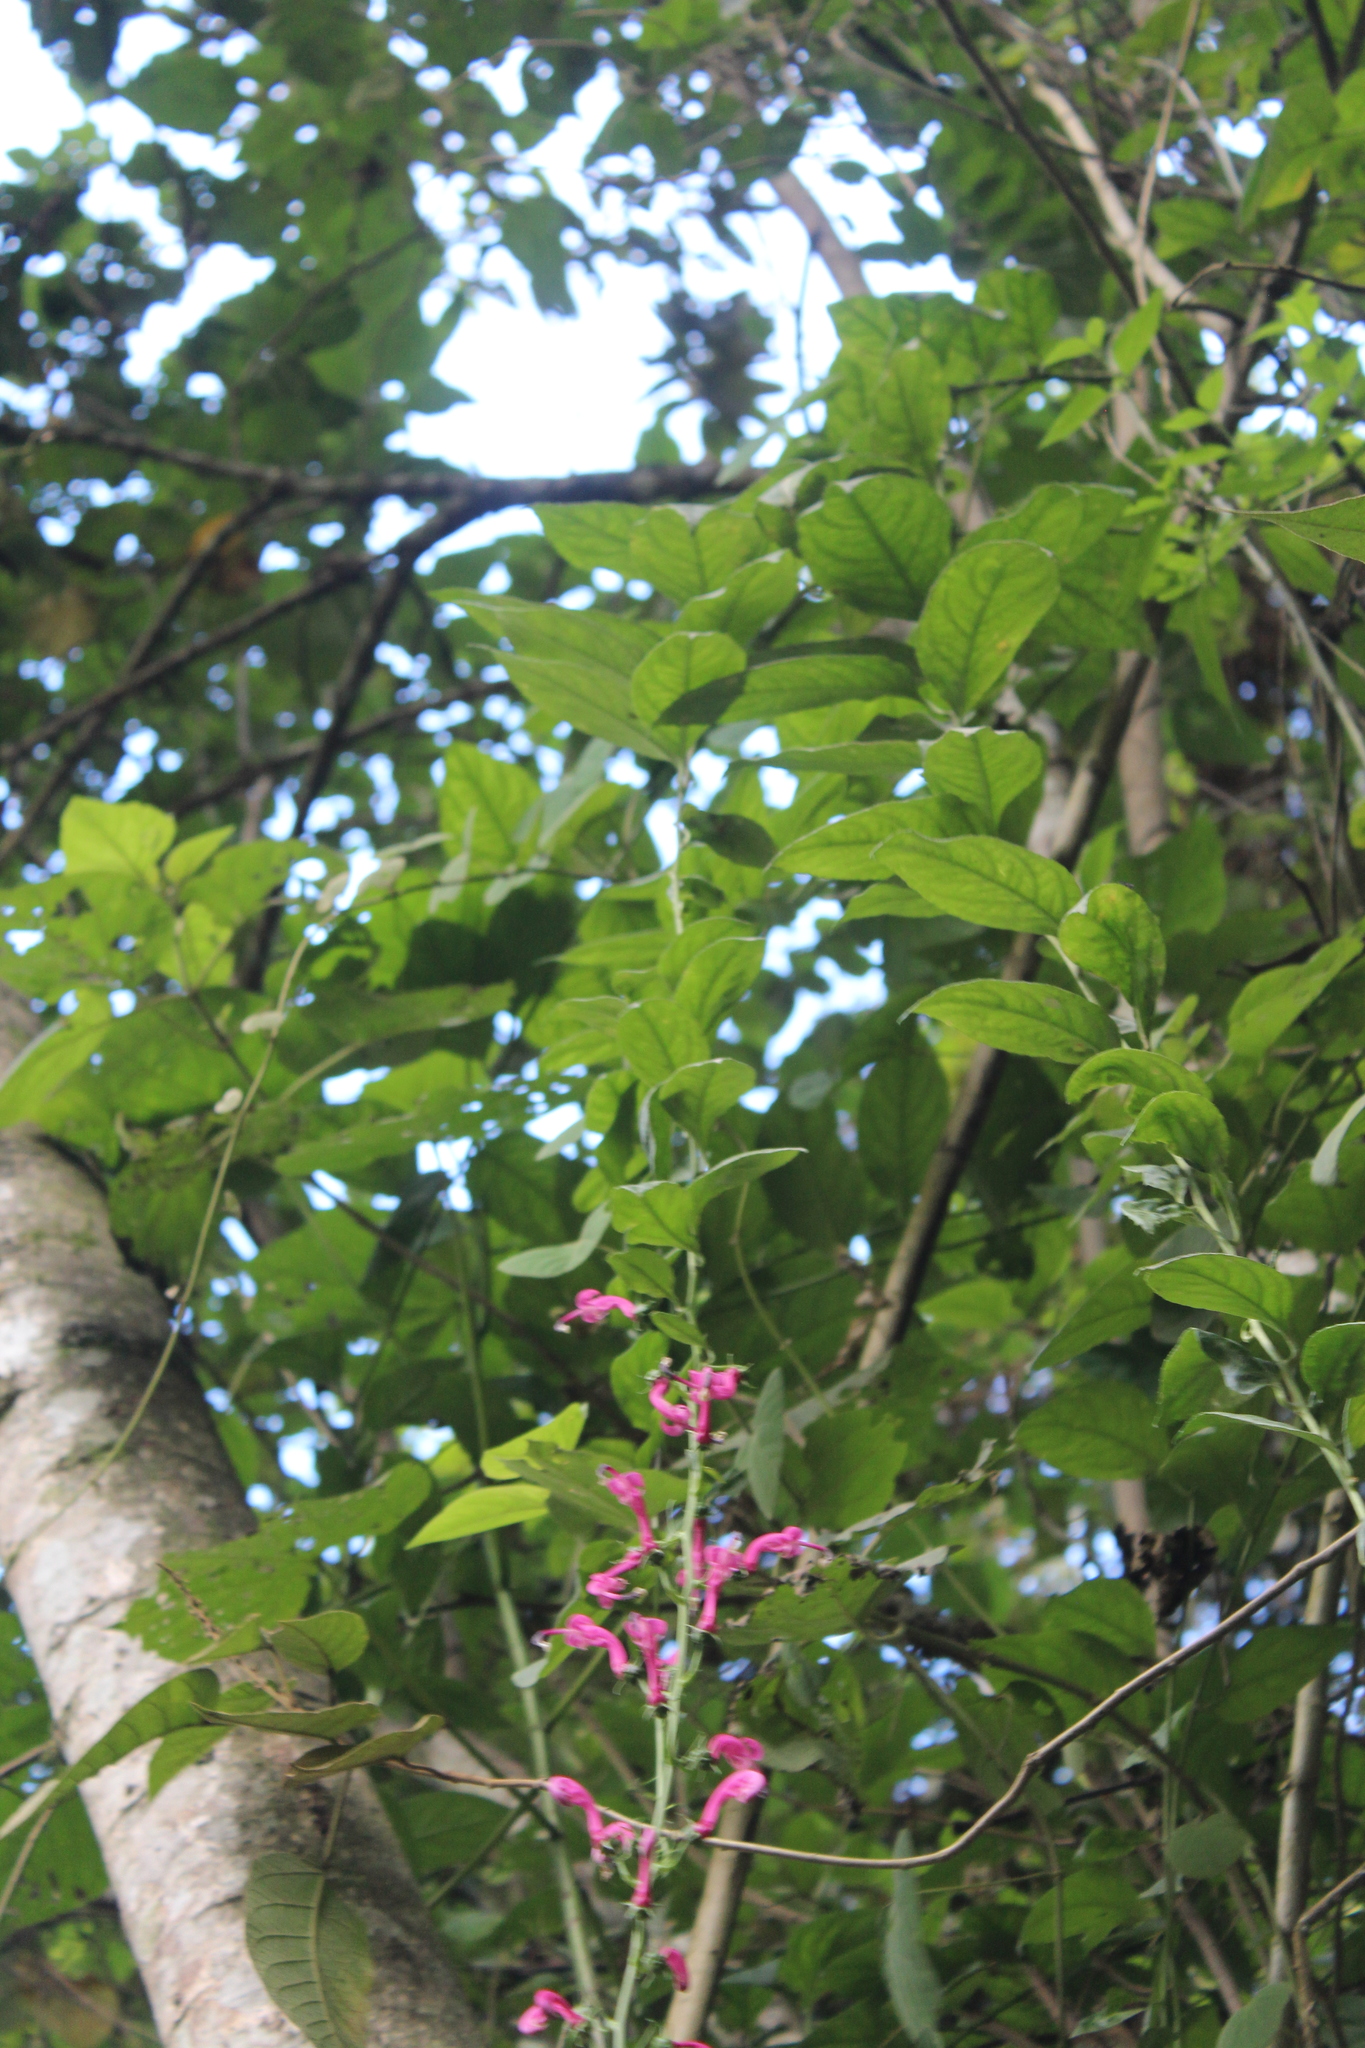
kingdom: Plantae
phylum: Tracheophyta
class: Magnoliopsida
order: Asterales
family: Campanulaceae
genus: Centropogon
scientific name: Centropogon urubambae
